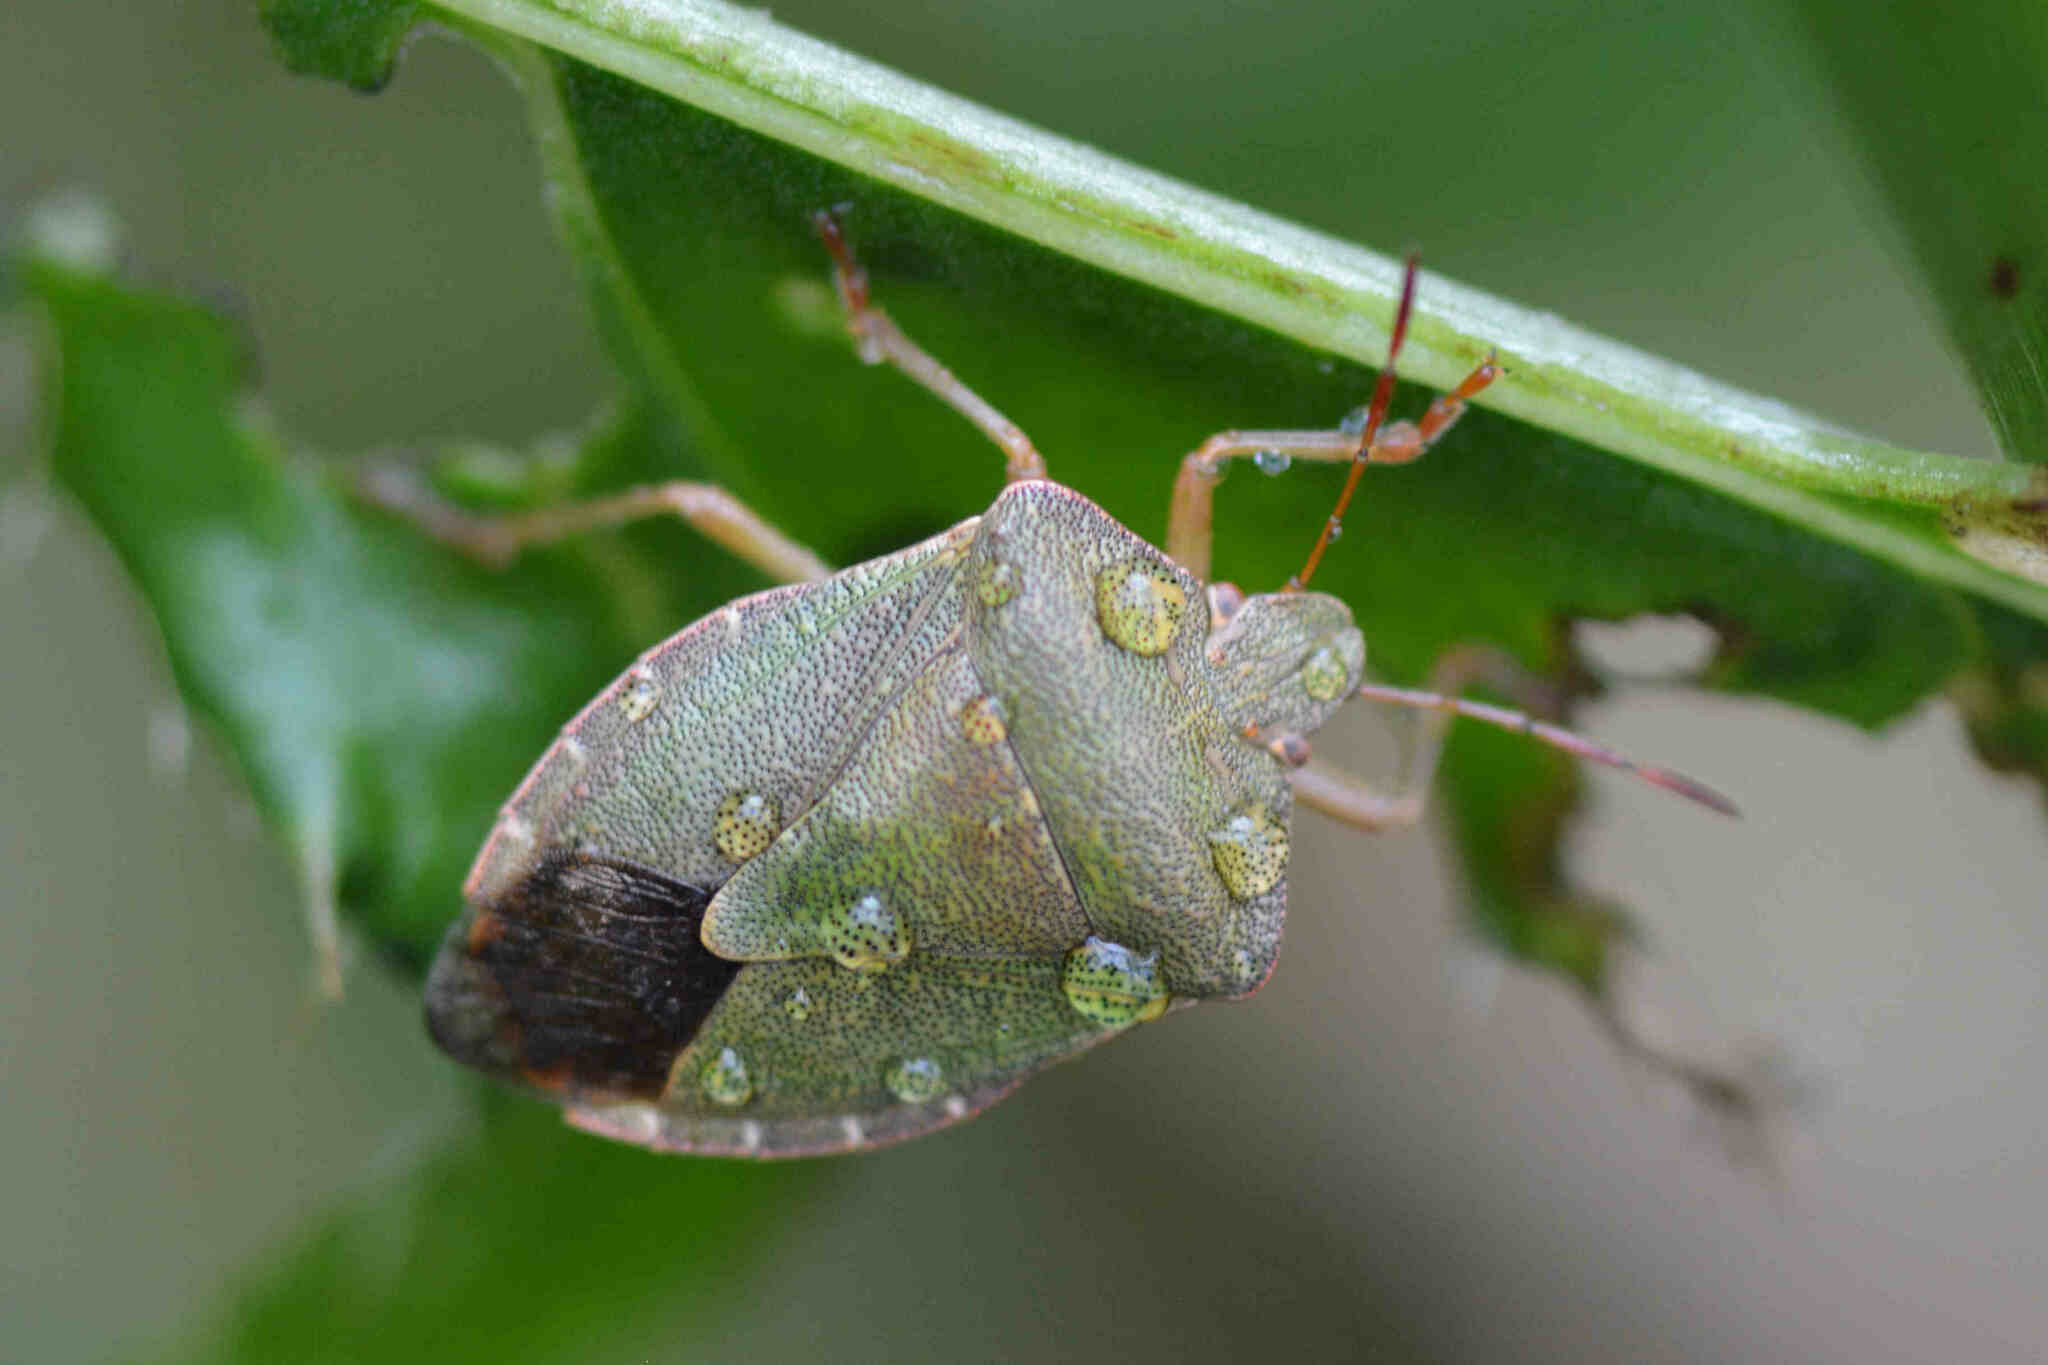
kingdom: Animalia
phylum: Arthropoda
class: Insecta
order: Hemiptera
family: Pentatomidae
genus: Palomena
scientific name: Palomena prasina
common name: Green shieldbug
